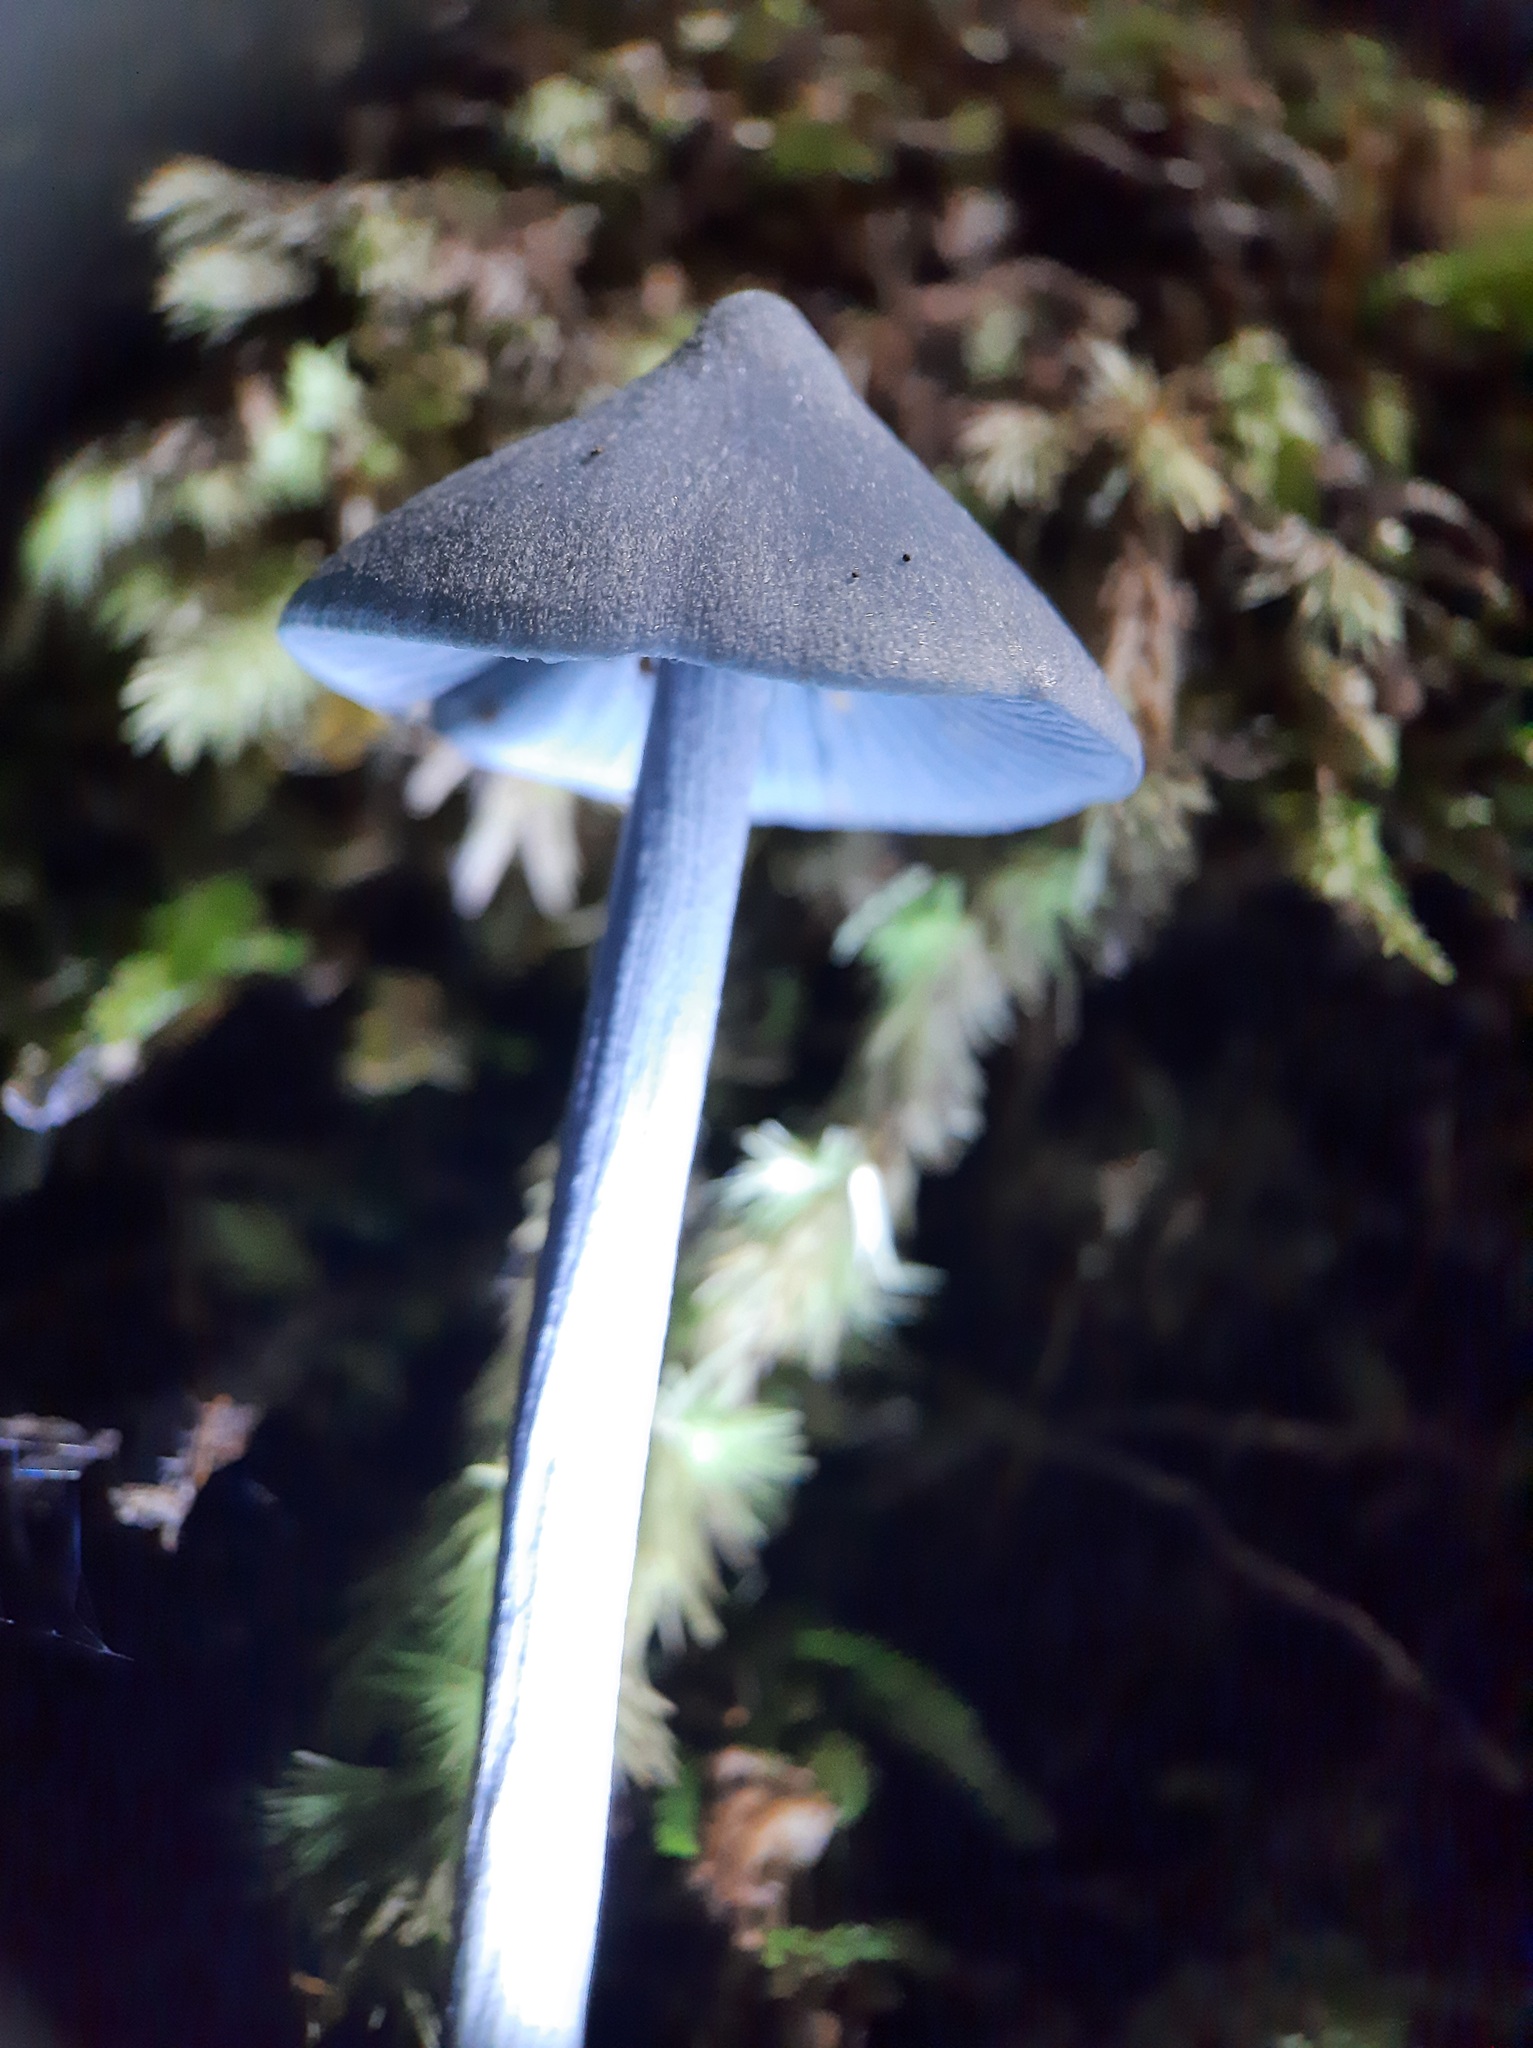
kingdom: Fungi
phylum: Basidiomycota
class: Agaricomycetes
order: Agaricales
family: Entolomataceae
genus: Entoloma
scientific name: Entoloma hochstetteri
